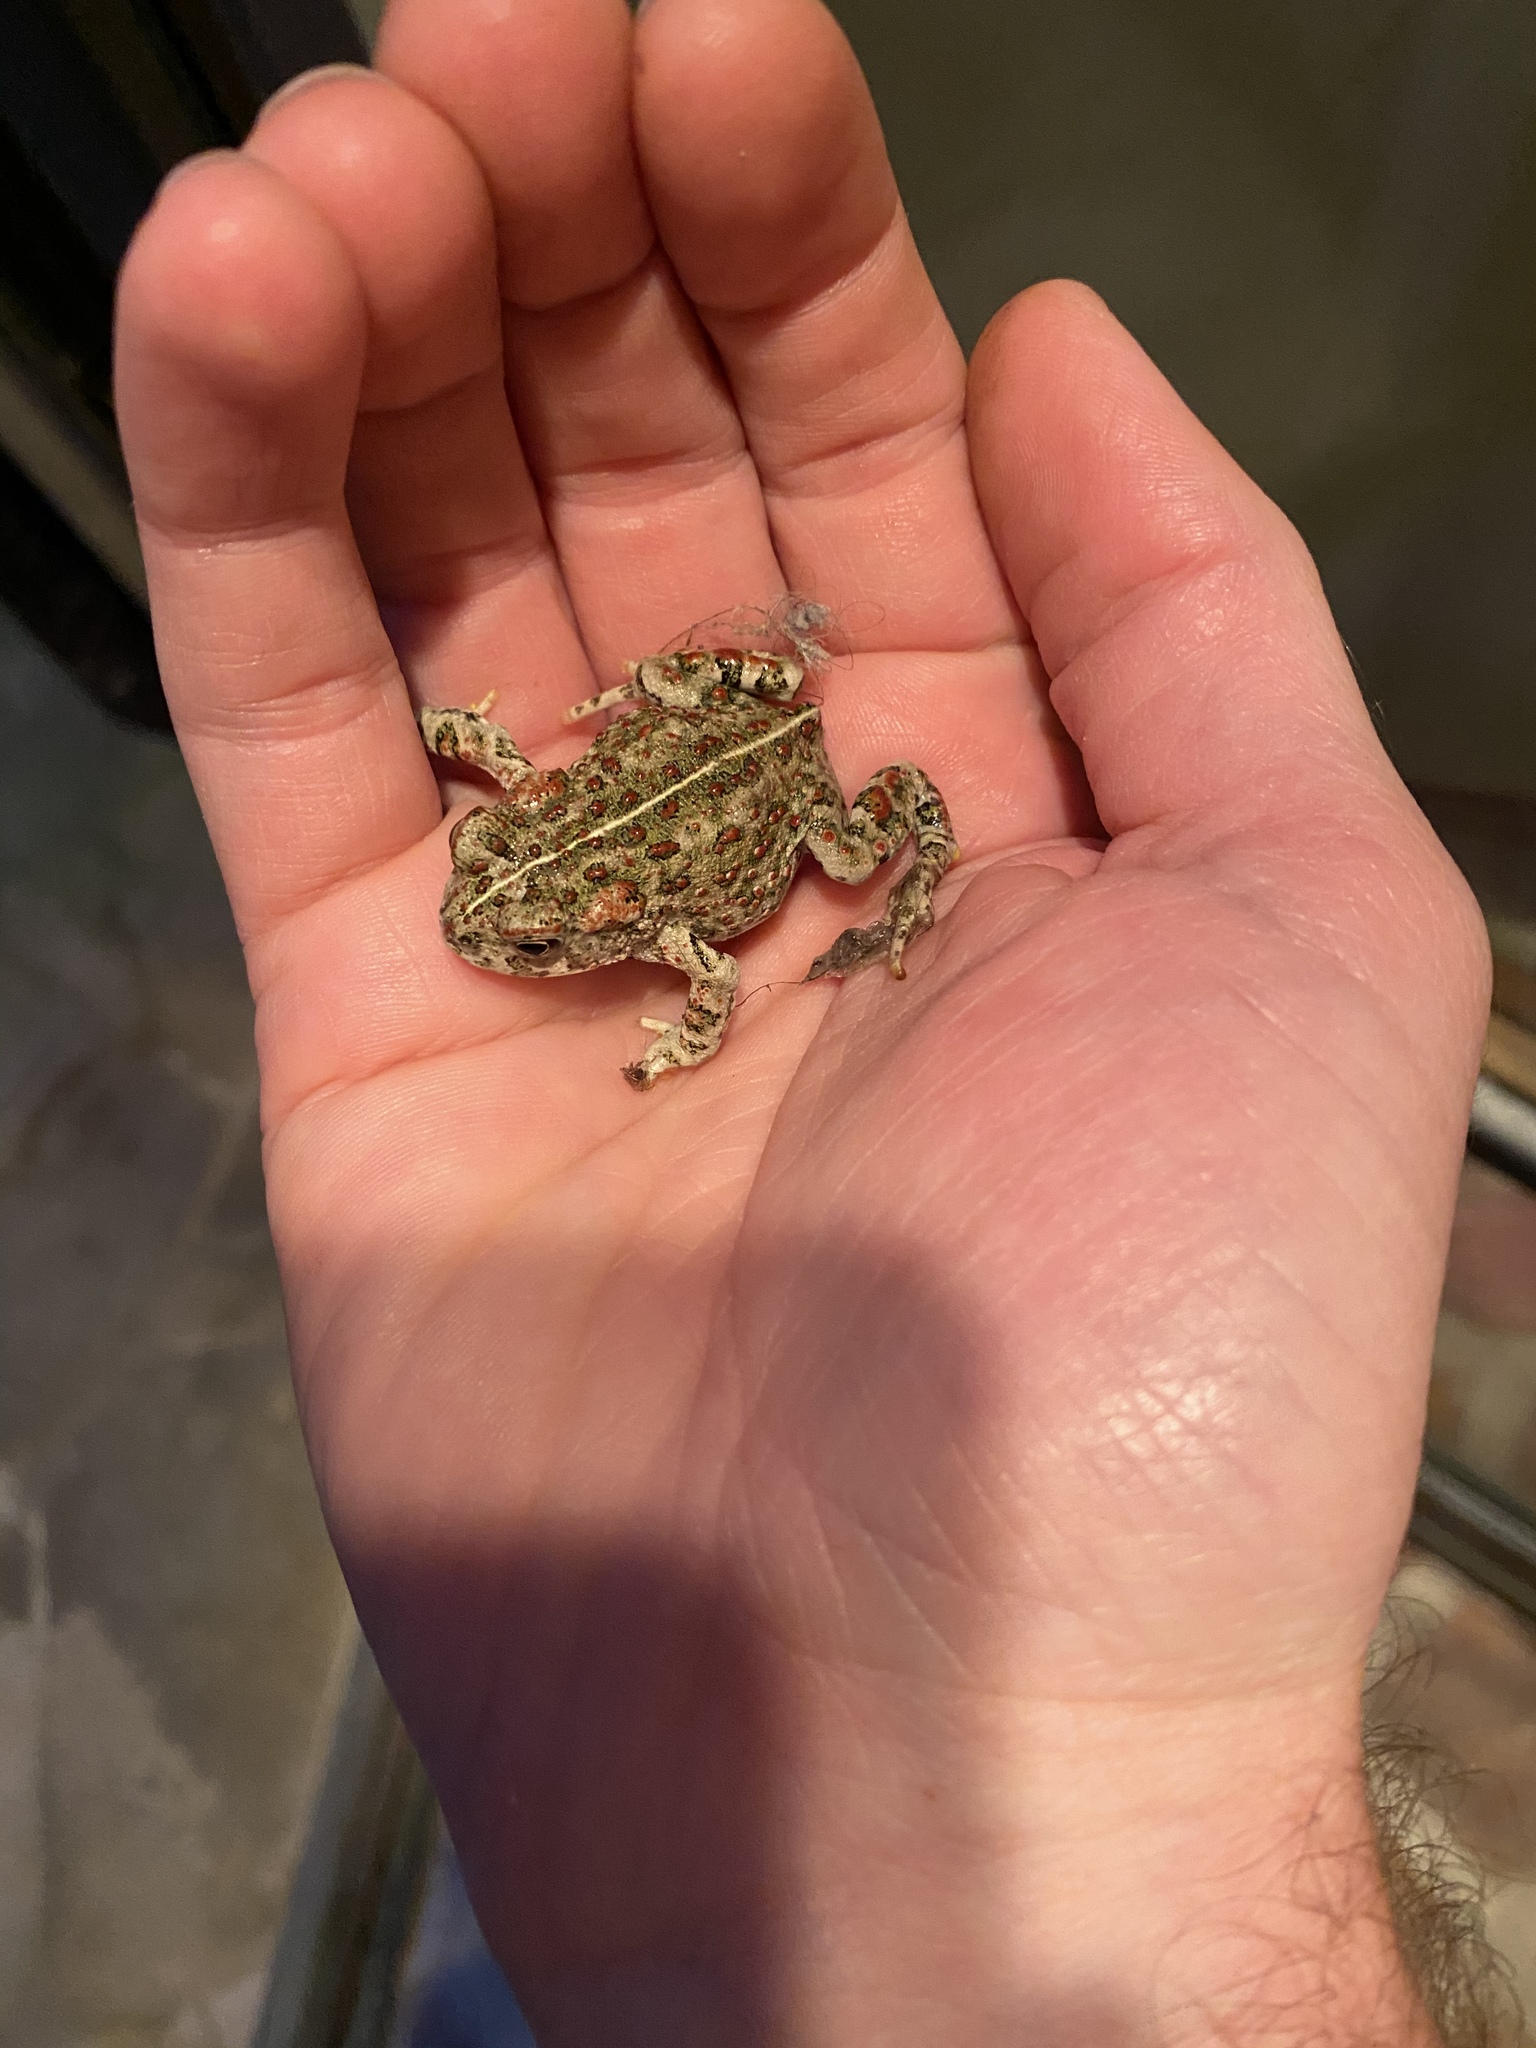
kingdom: Animalia
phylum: Chordata
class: Amphibia
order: Anura
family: Bufonidae
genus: Anaxyrus
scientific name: Anaxyrus boreas
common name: Western toad
